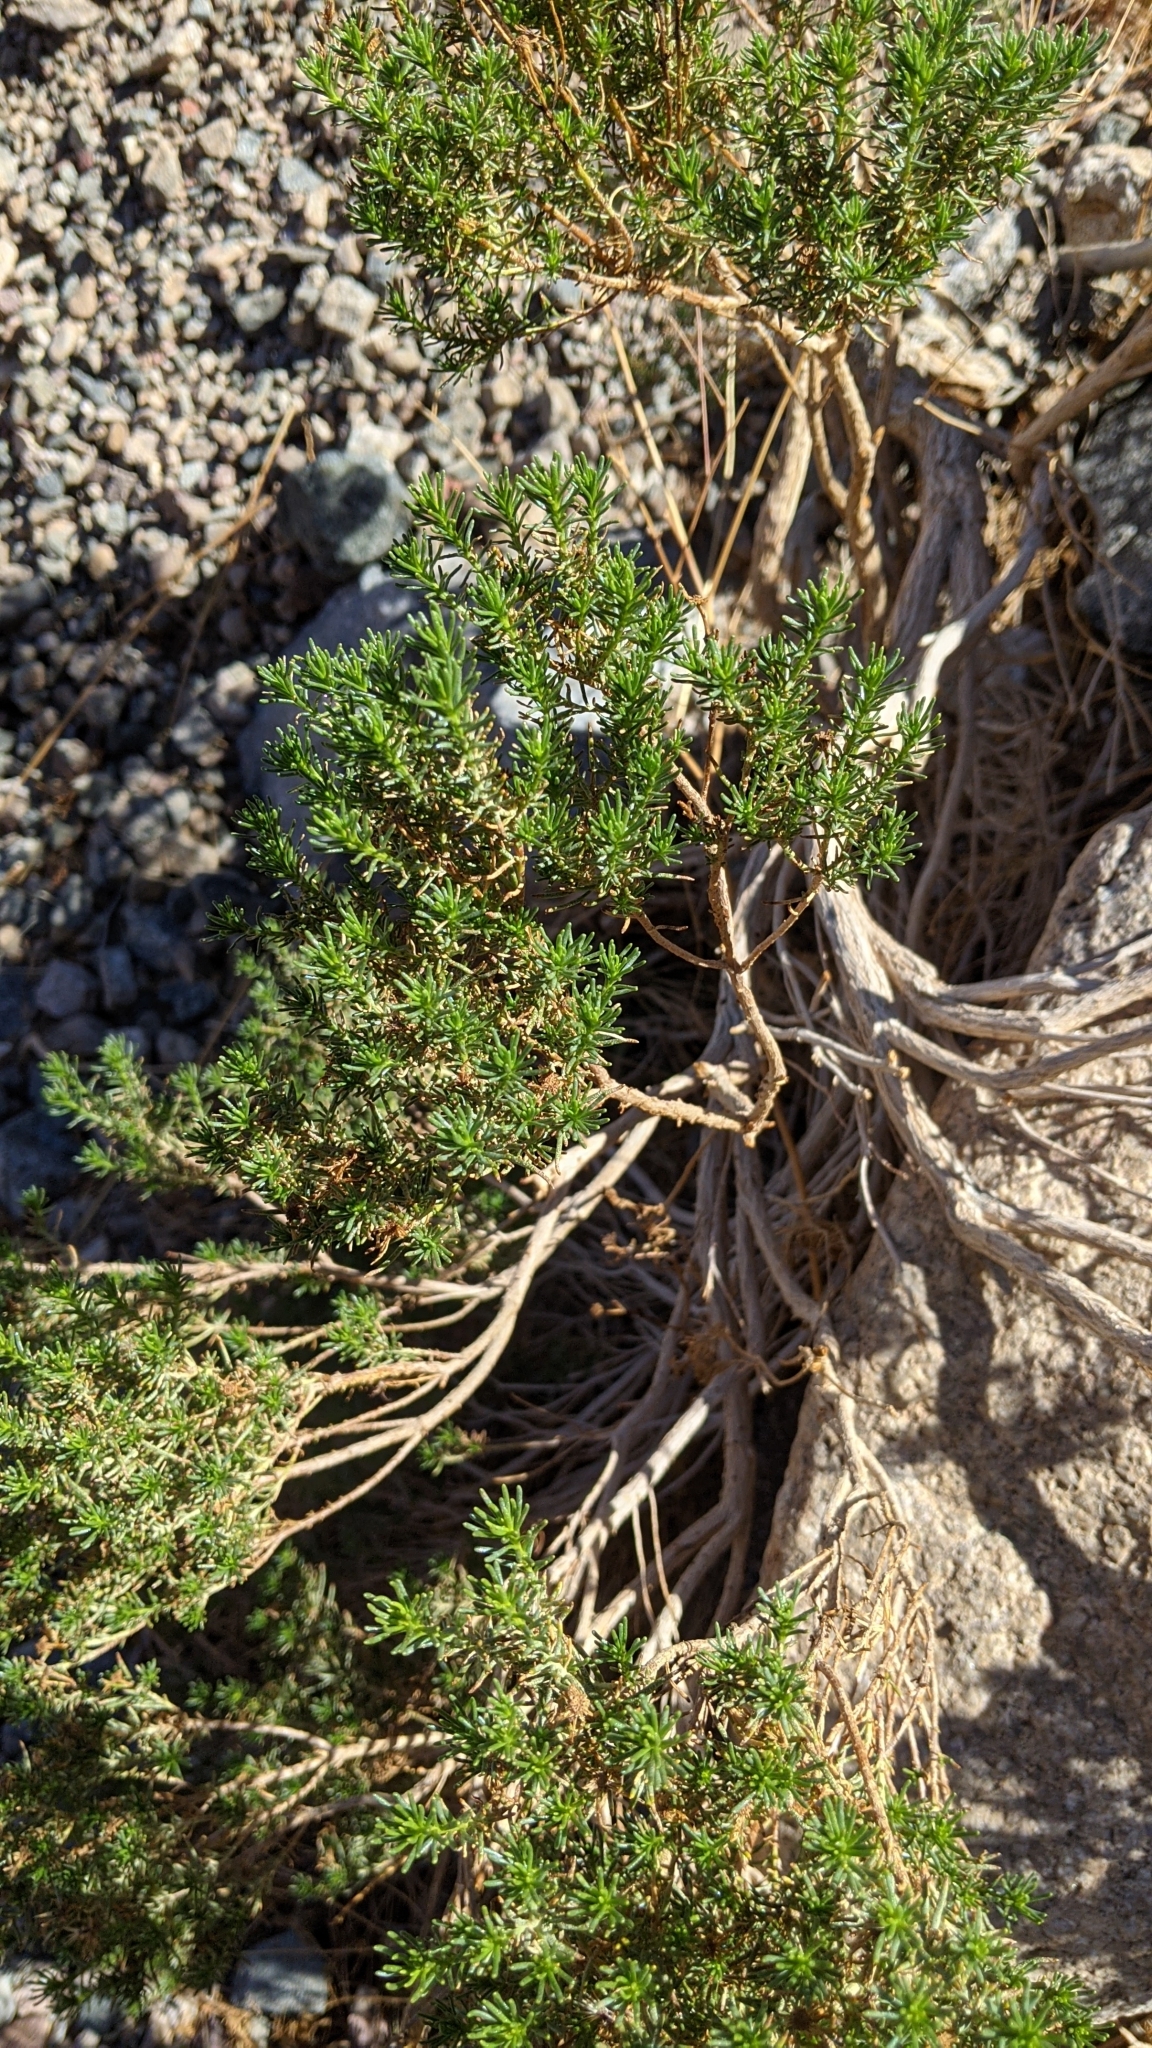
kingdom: Plantae
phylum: Tracheophyta
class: Magnoliopsida
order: Asterales
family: Asteraceae
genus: Peucephyllum
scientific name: Peucephyllum schottii
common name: Pygmy-cedar
